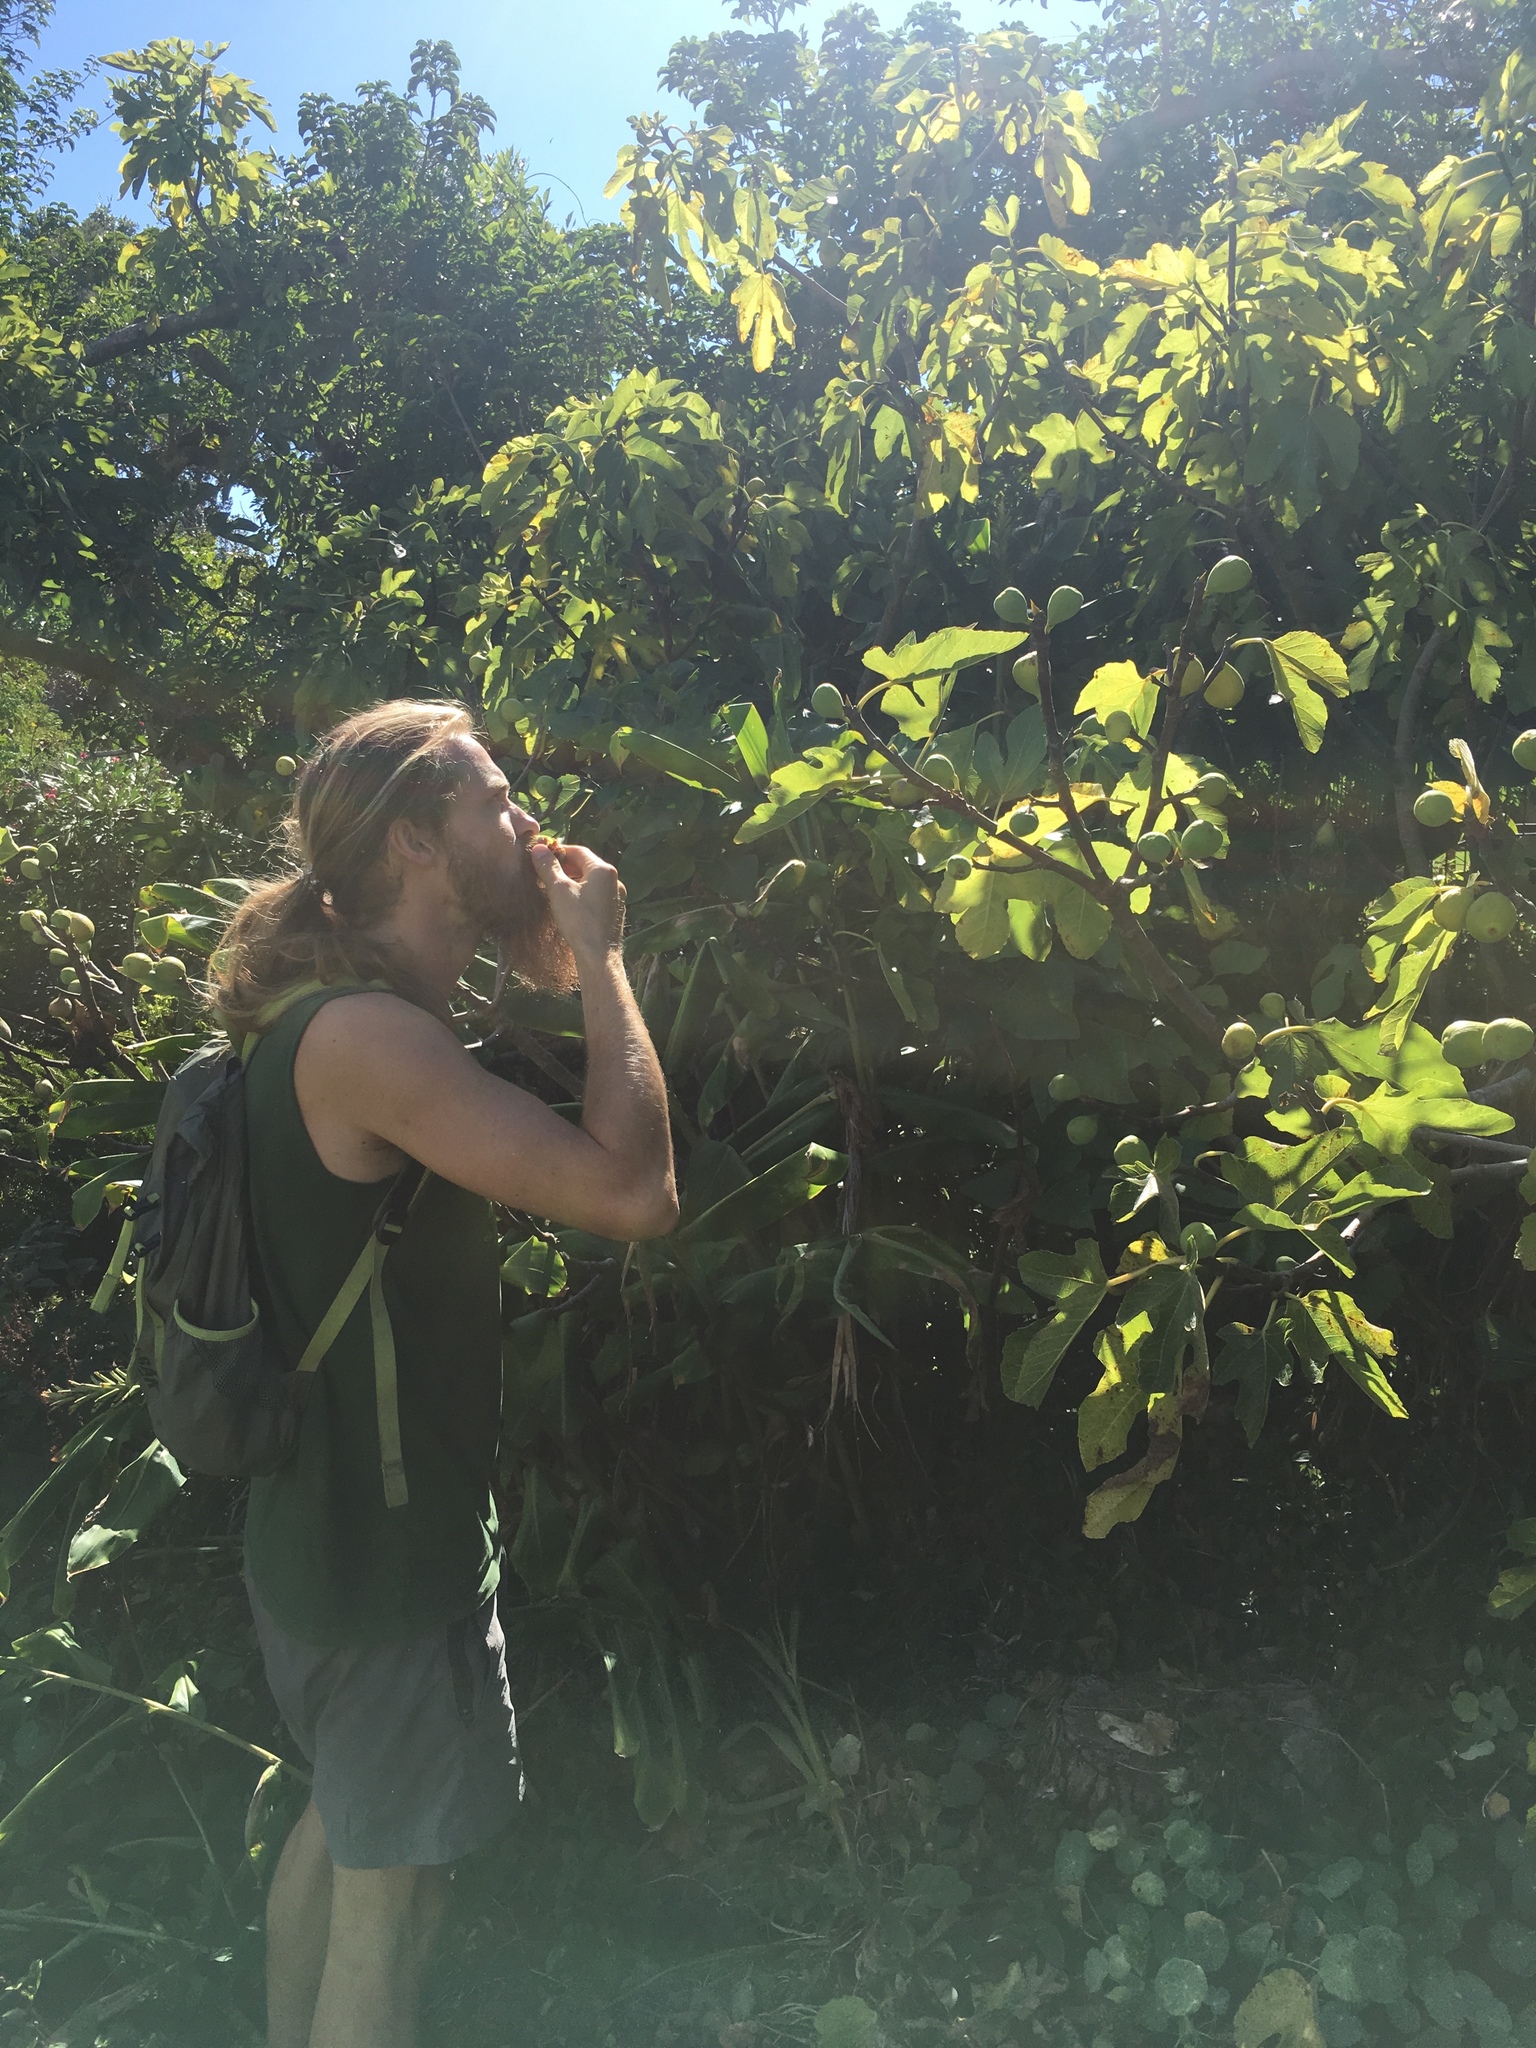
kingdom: Plantae
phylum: Tracheophyta
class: Magnoliopsida
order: Rosales
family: Moraceae
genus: Ficus
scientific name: Ficus carica
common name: Fig
